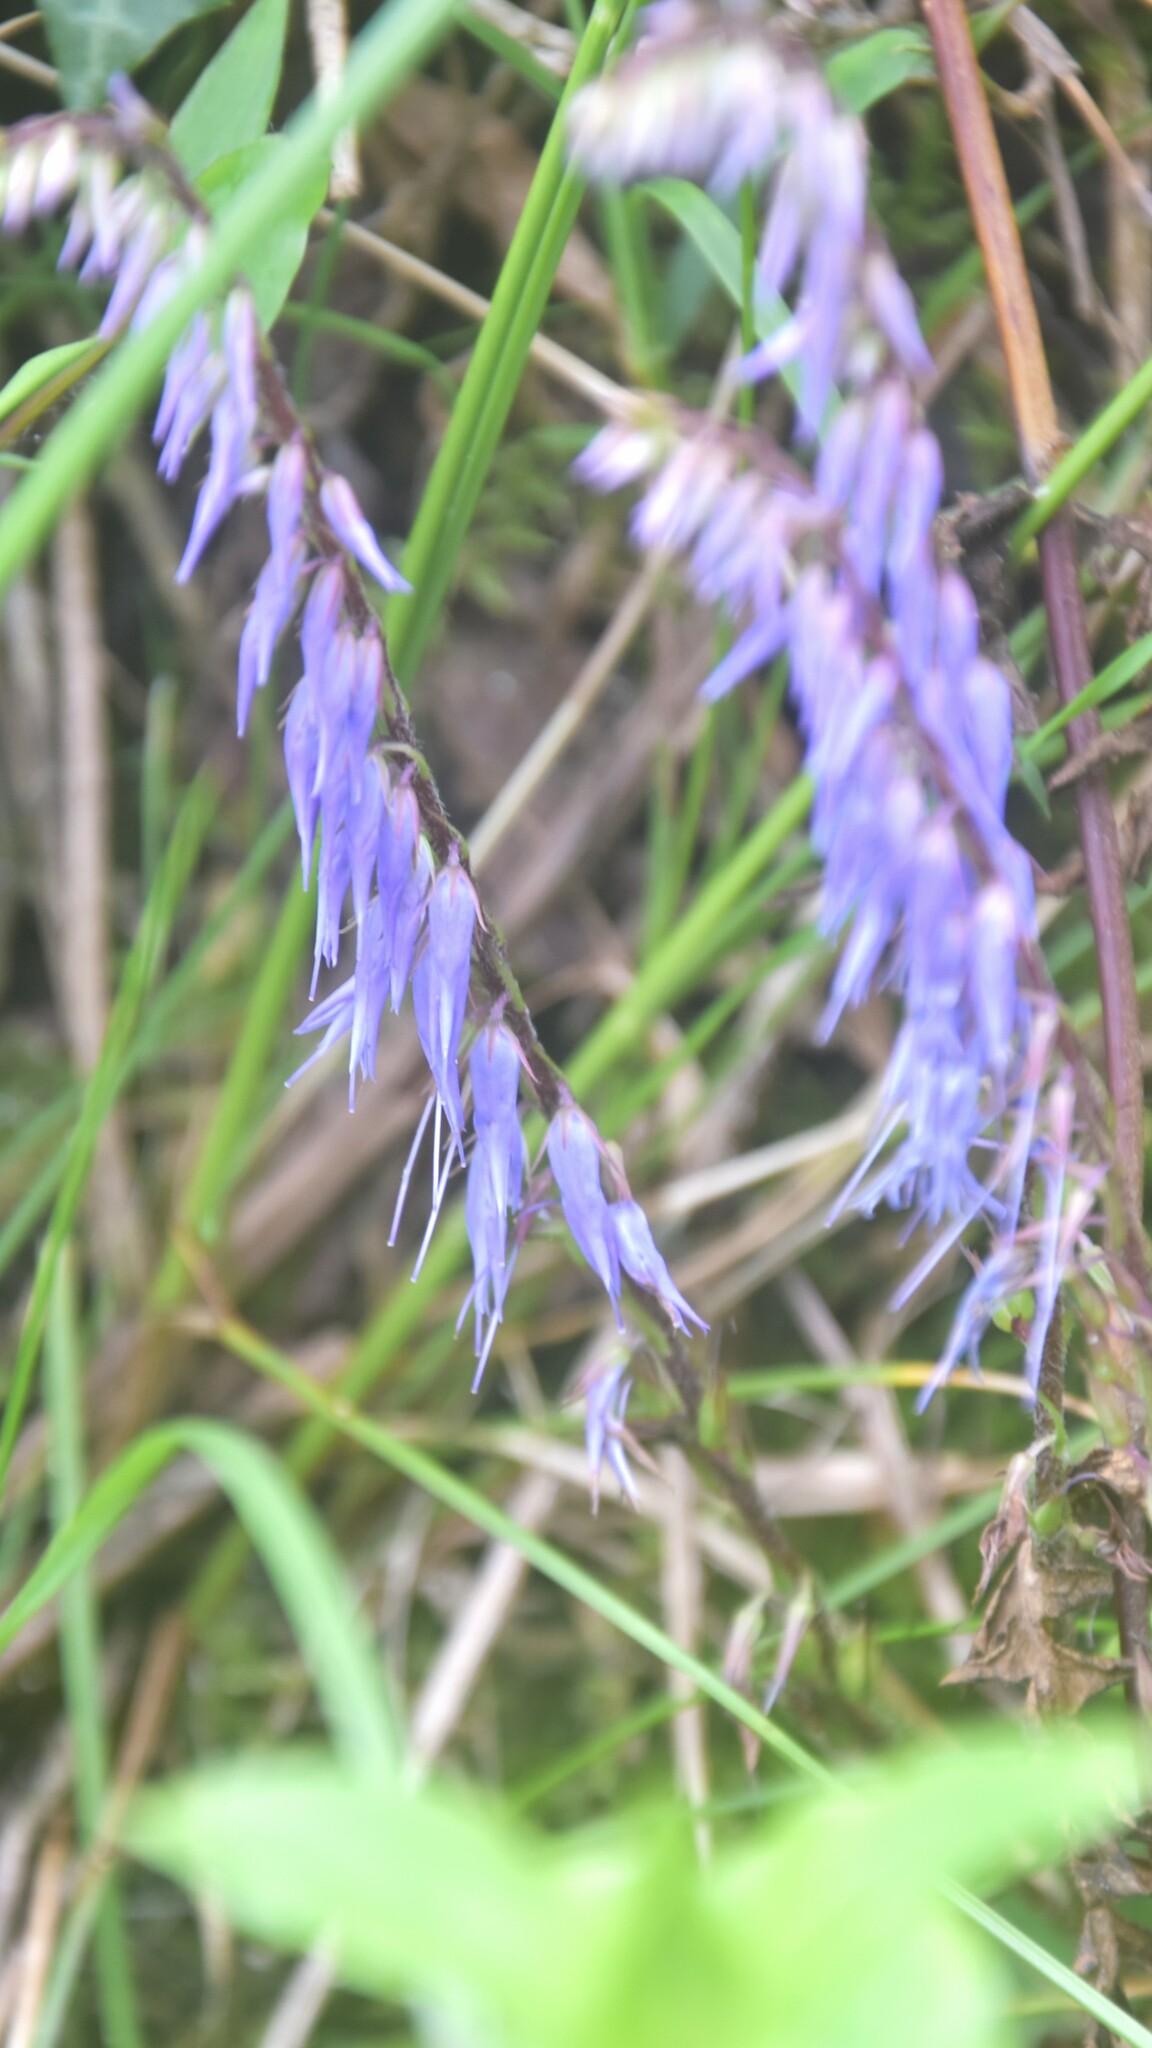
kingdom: Plantae
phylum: Tracheophyta
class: Magnoliopsida
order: Lamiales
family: Plantaginaceae
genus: Wulfeniopsis
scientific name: Wulfeniopsis amherstiana
